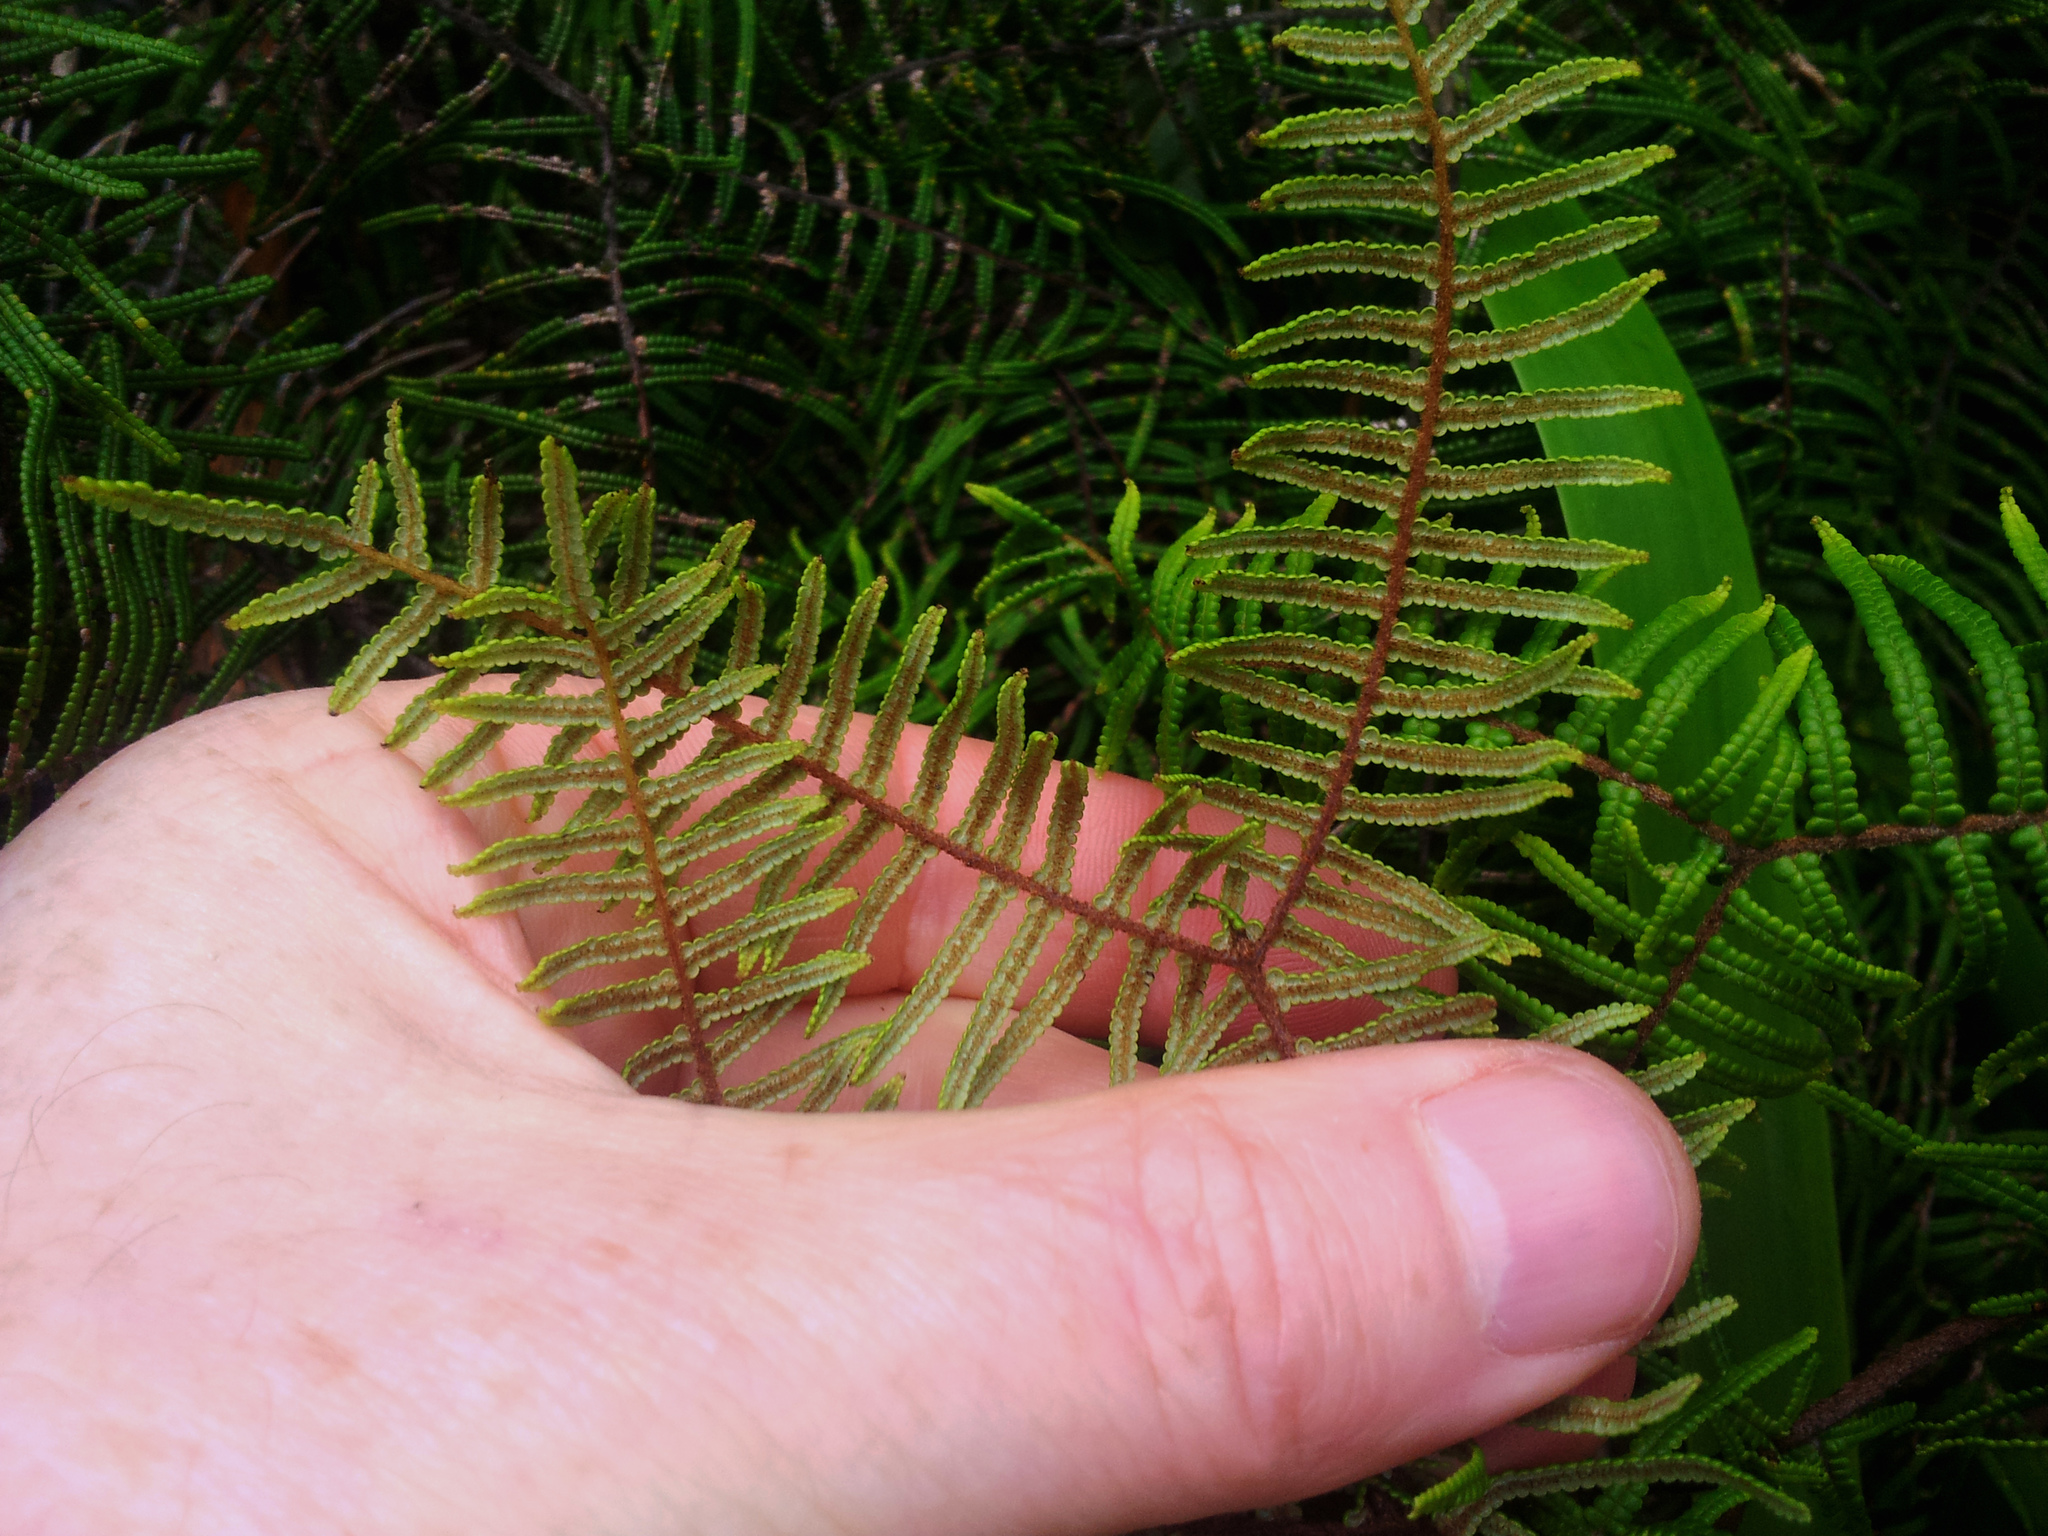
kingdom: Plantae
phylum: Tracheophyta
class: Polypodiopsida
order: Gleicheniales
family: Gleicheniaceae
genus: Gleichenia
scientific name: Gleichenia dicarpa
